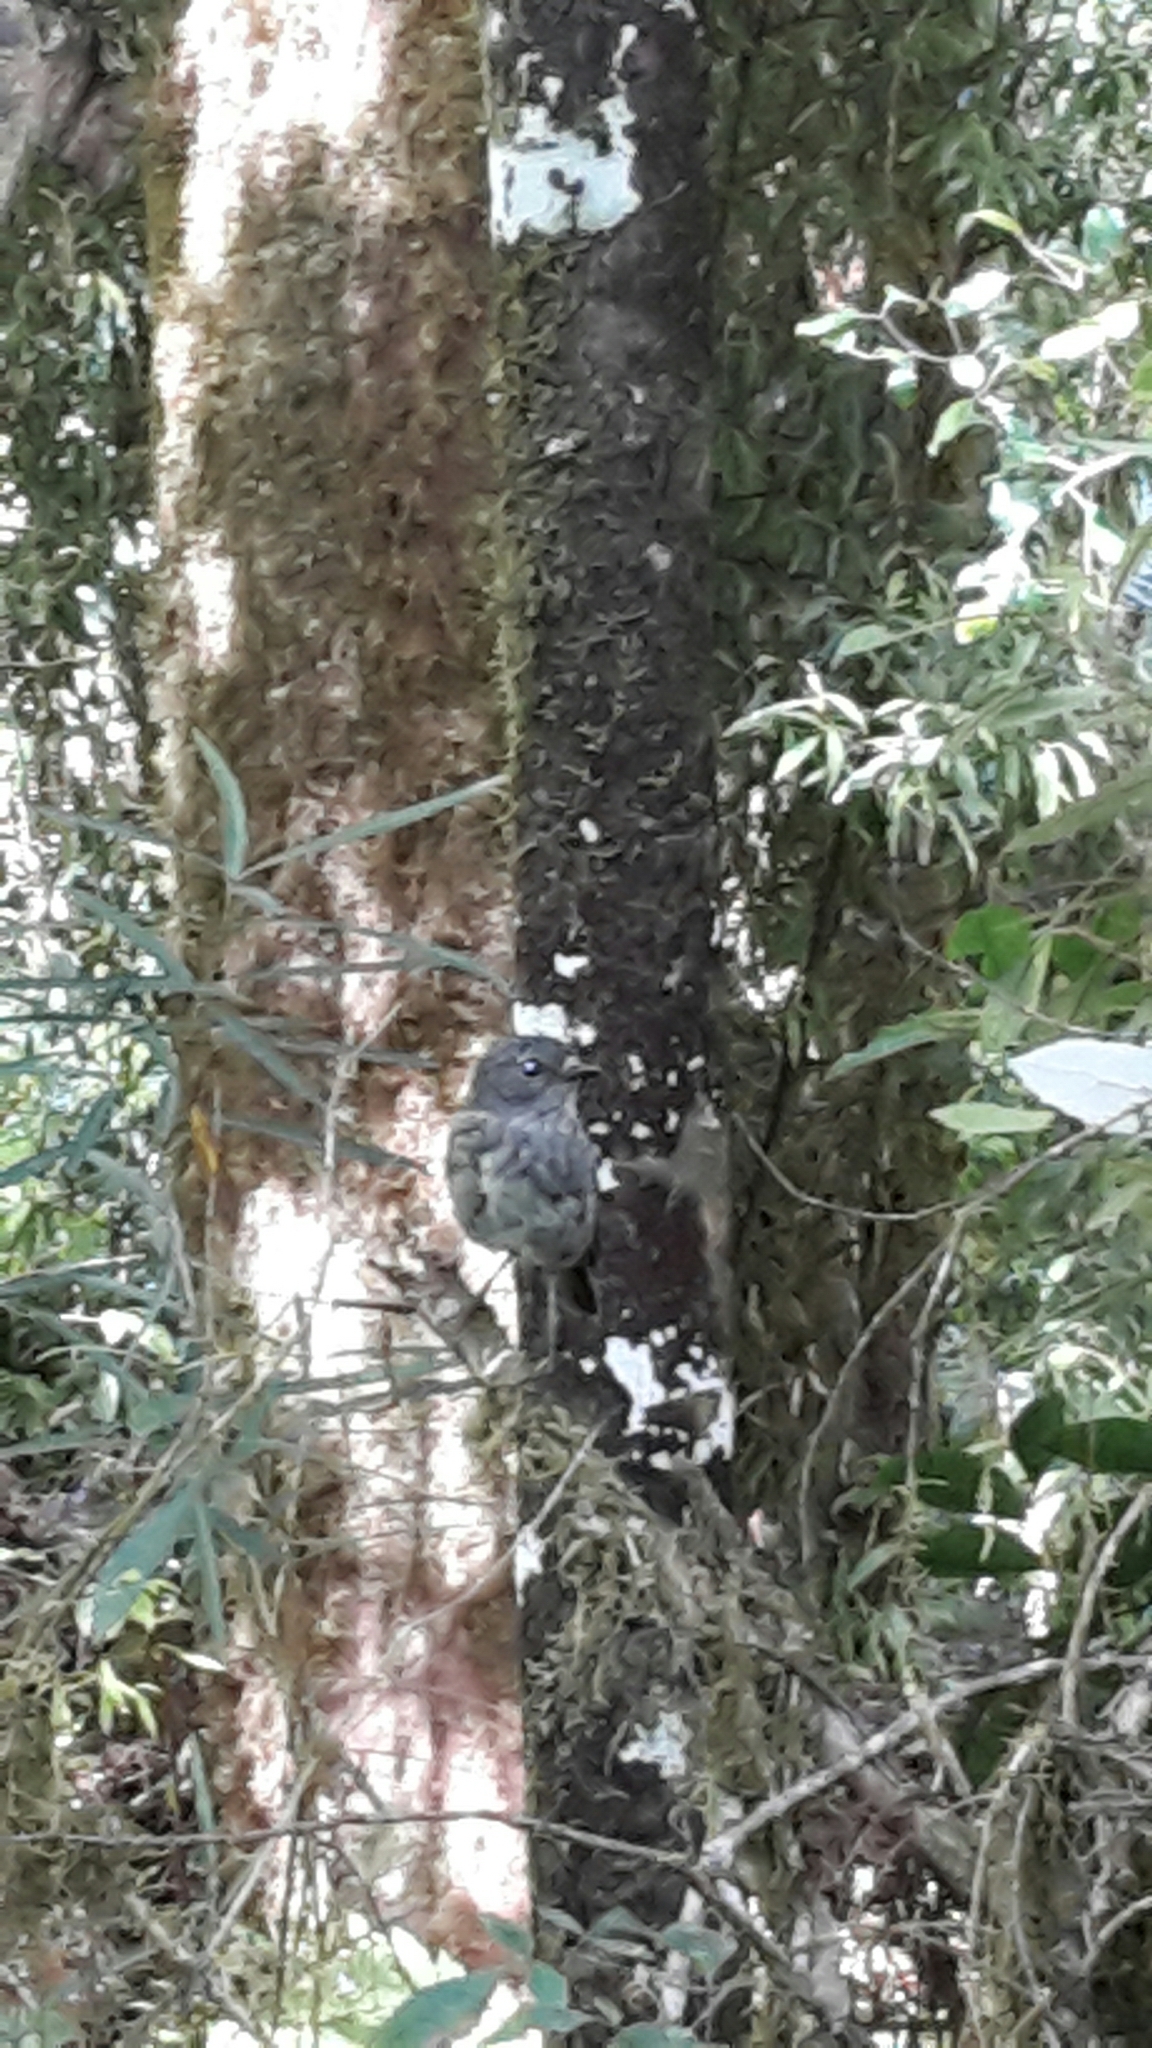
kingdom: Animalia
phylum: Chordata
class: Aves
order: Passeriformes
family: Petroicidae
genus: Petroica
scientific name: Petroica australis
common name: New zealand robin
